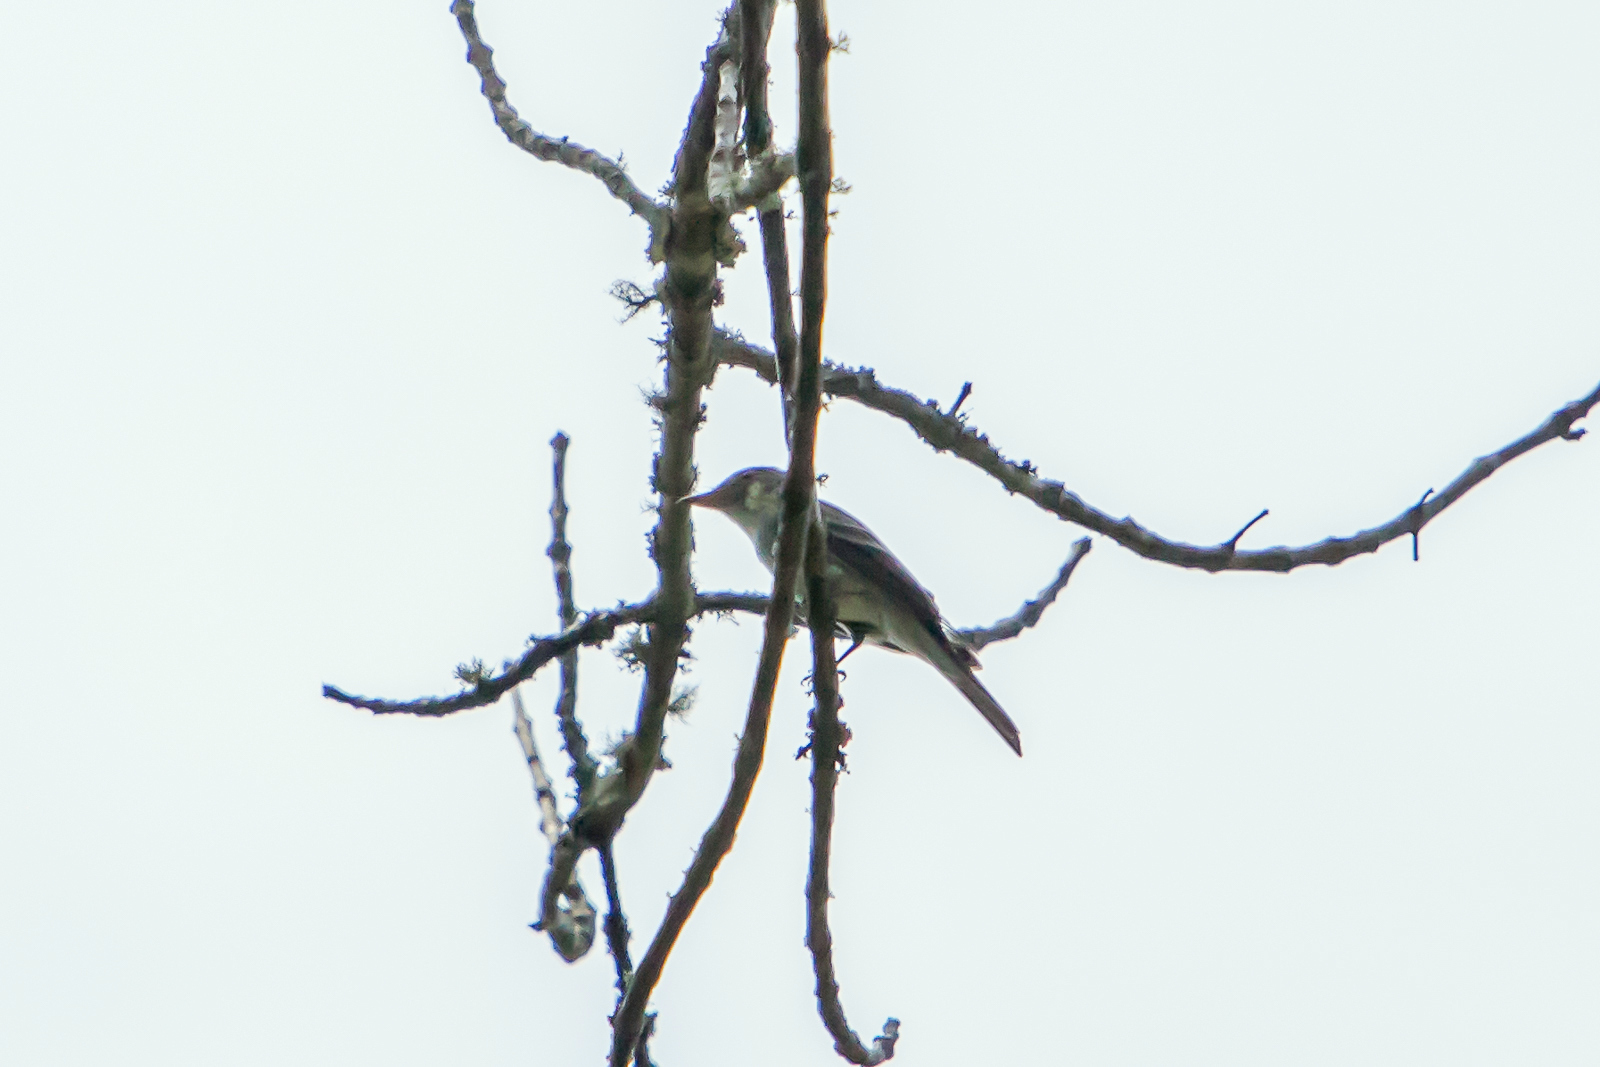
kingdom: Animalia
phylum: Chordata
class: Aves
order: Passeriformes
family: Tyrannidae
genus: Contopus
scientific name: Contopus virens
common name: Eastern wood-pewee
